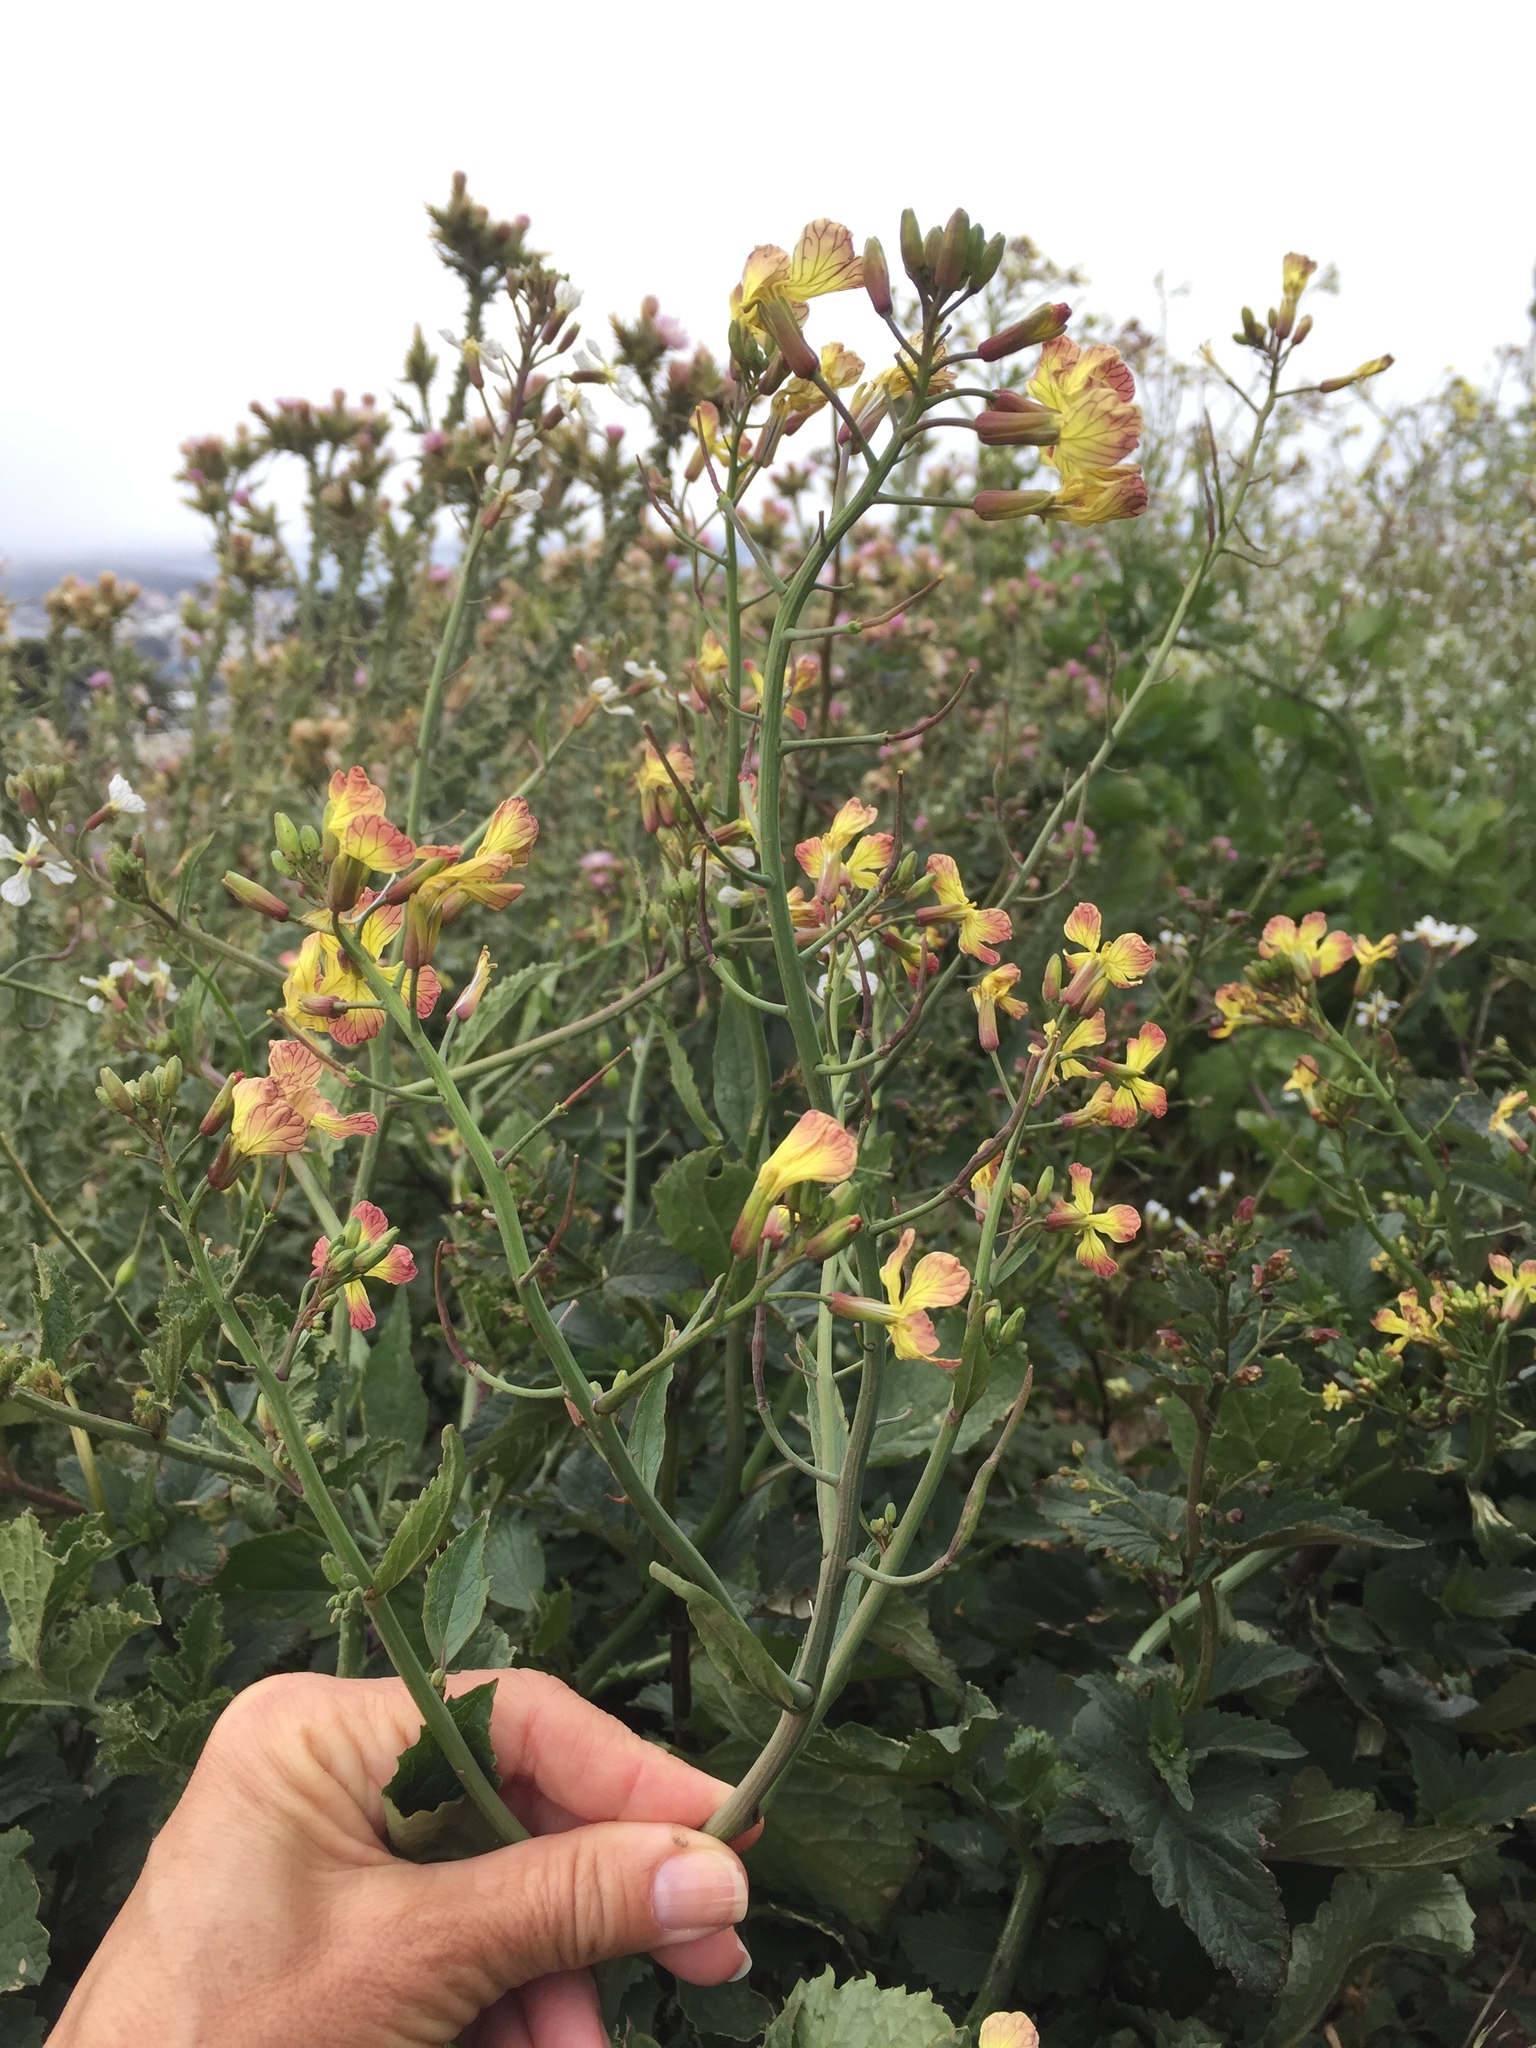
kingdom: Plantae
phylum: Tracheophyta
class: Magnoliopsida
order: Brassicales
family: Brassicaceae
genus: Raphanus
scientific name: Raphanus raphanistrum
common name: Wild radish
